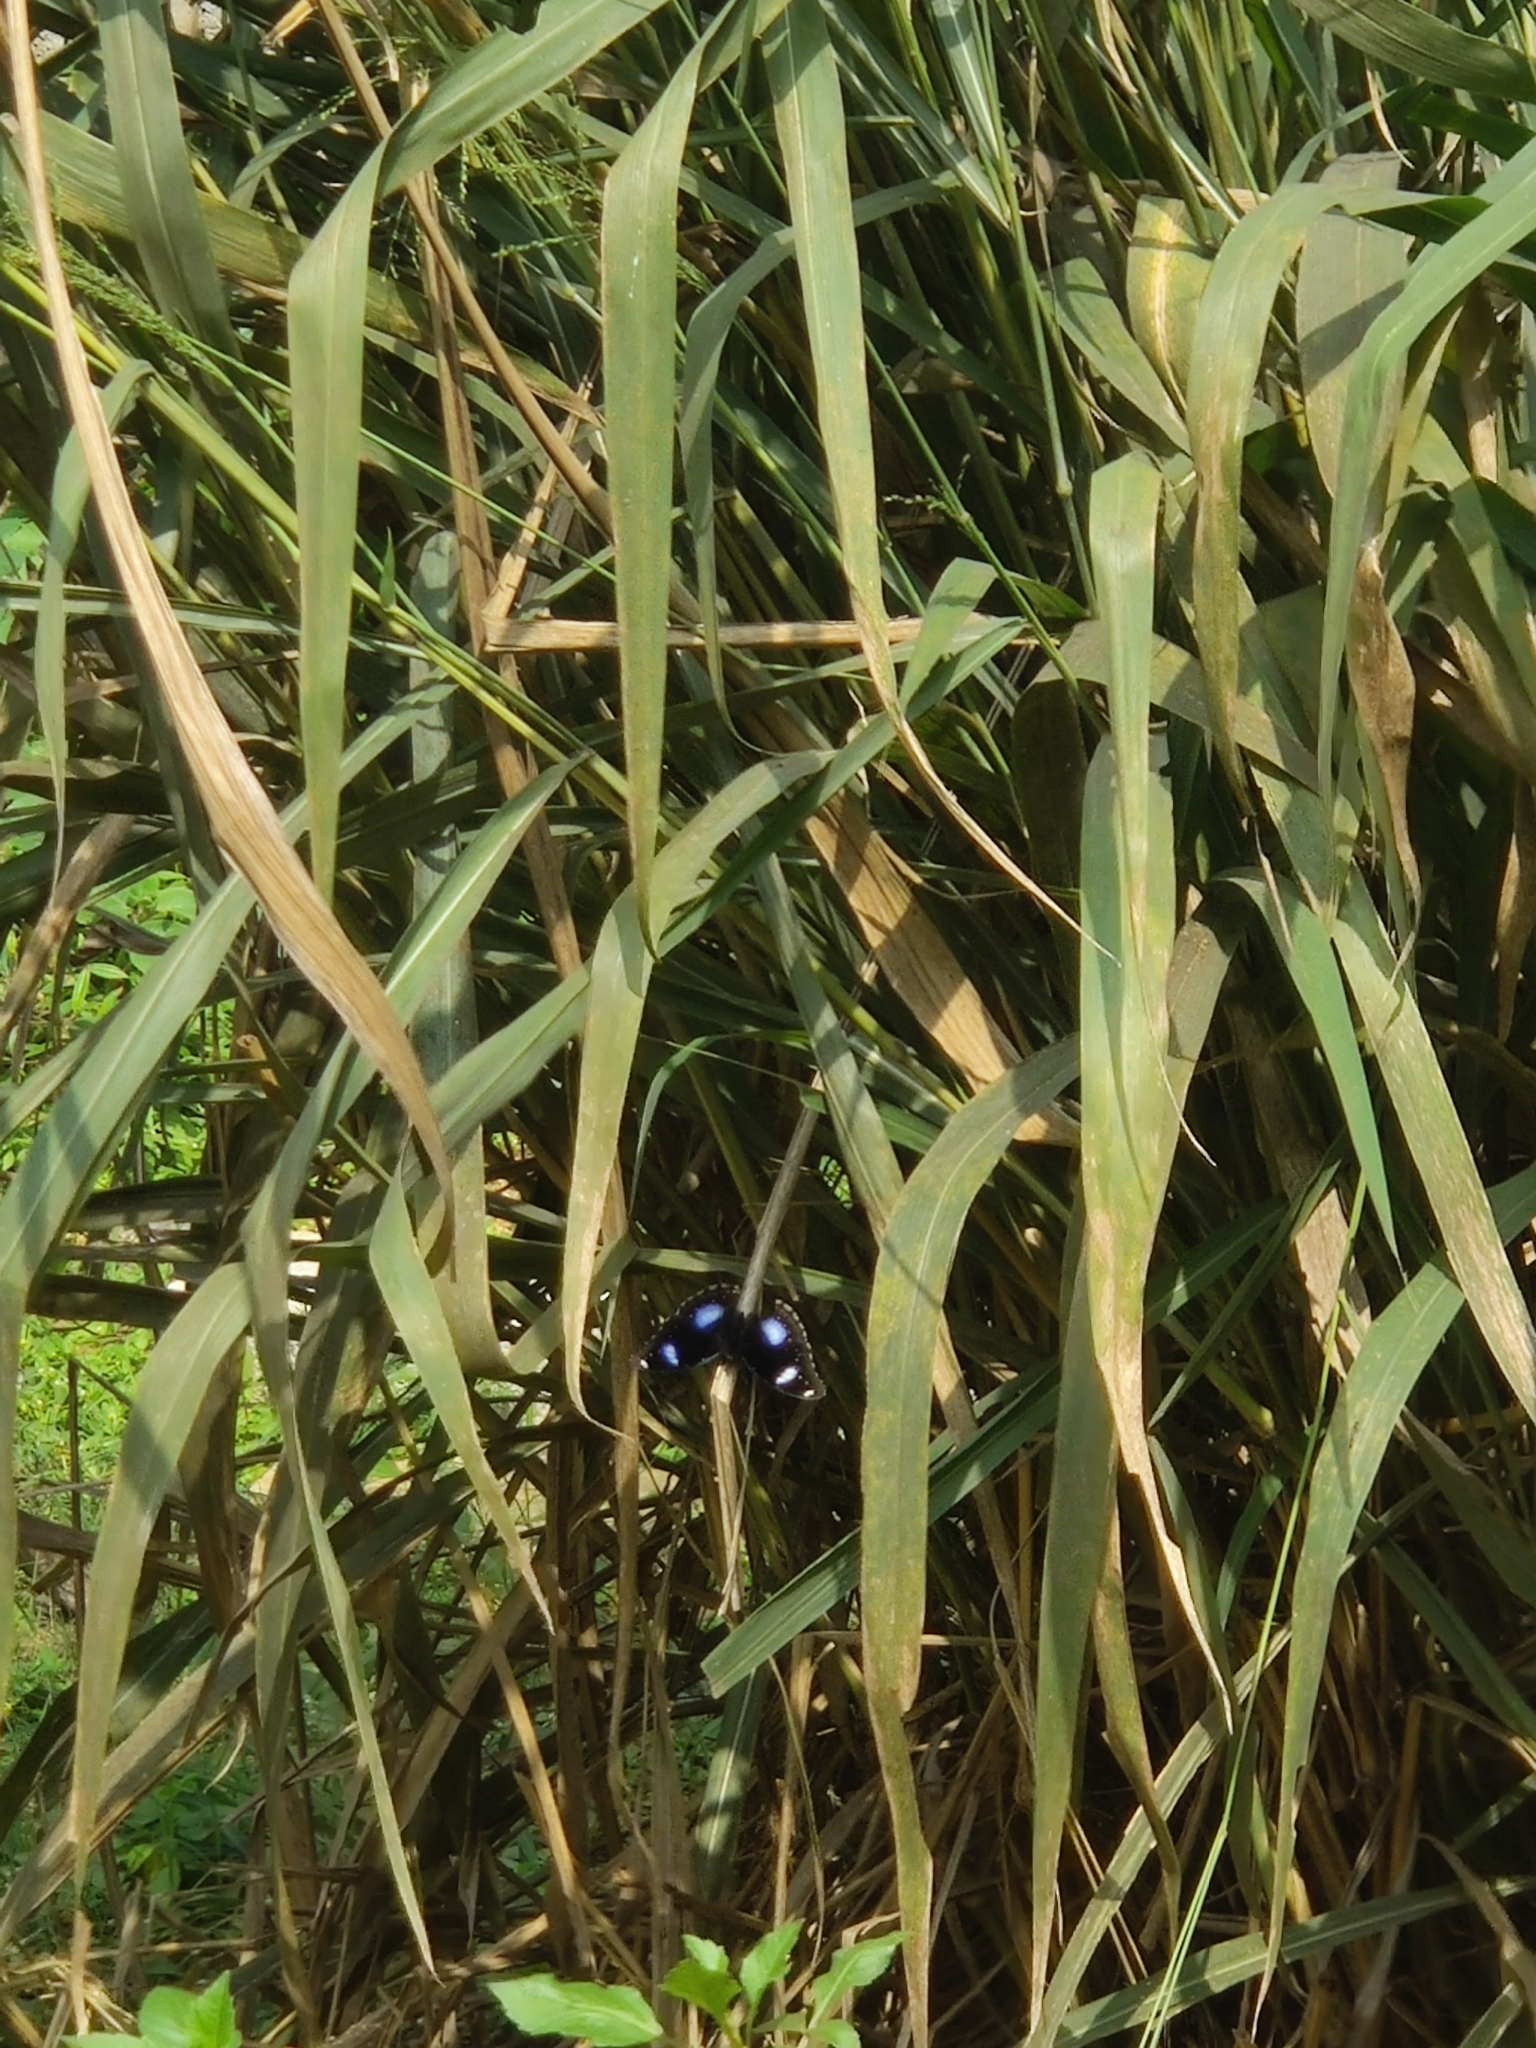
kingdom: Animalia
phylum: Arthropoda
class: Insecta
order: Lepidoptera
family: Nymphalidae
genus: Hypolimnas
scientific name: Hypolimnas bolina
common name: Great eggfly
